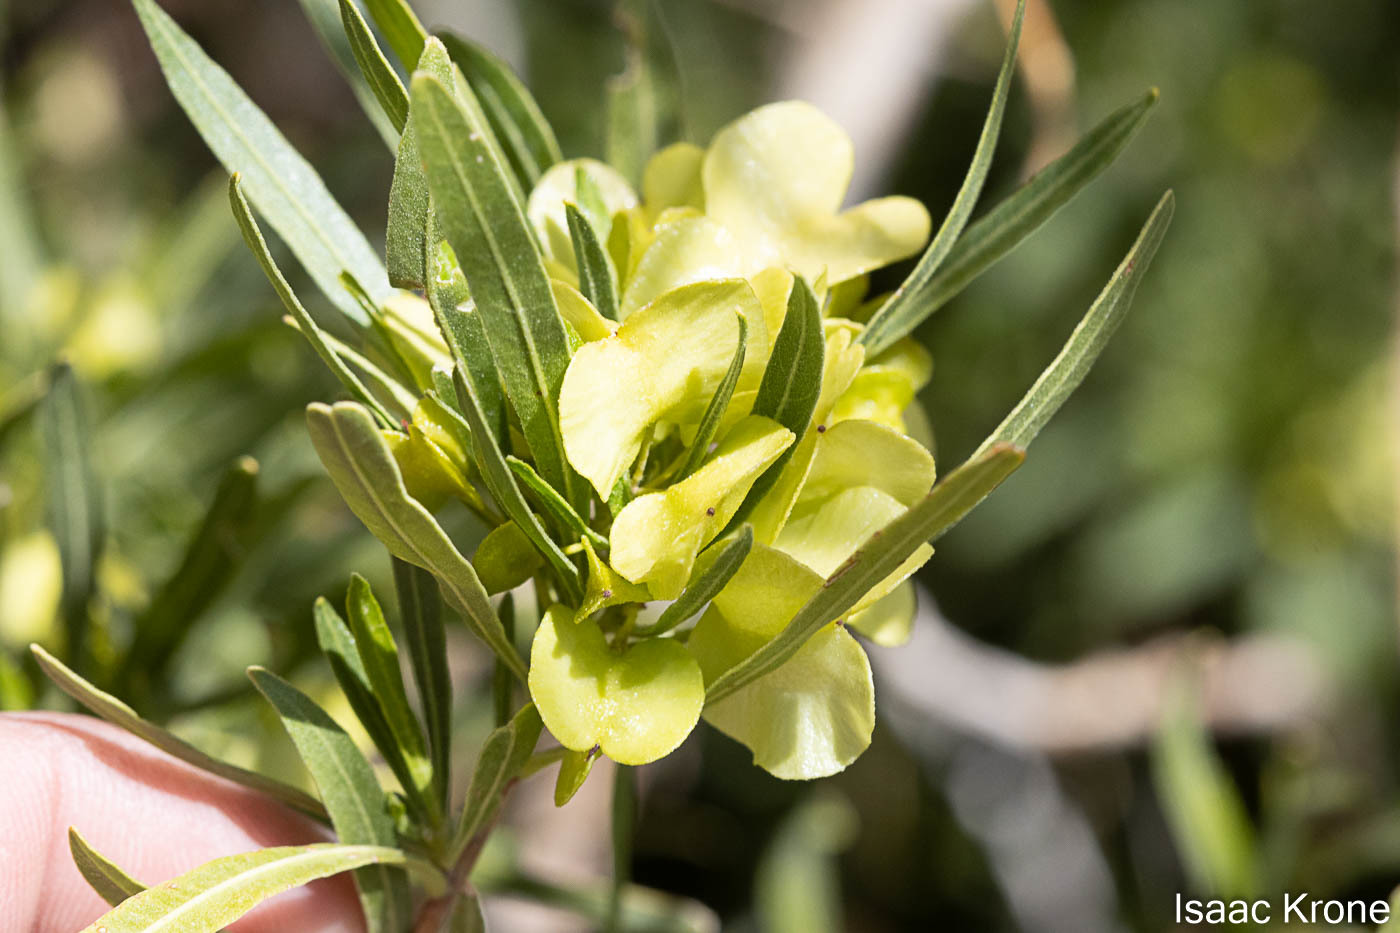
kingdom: Plantae
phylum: Tracheophyta
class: Magnoliopsida
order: Sapindales
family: Sapindaceae
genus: Dodonaea
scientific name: Dodonaea viscosa
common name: Hopbush
